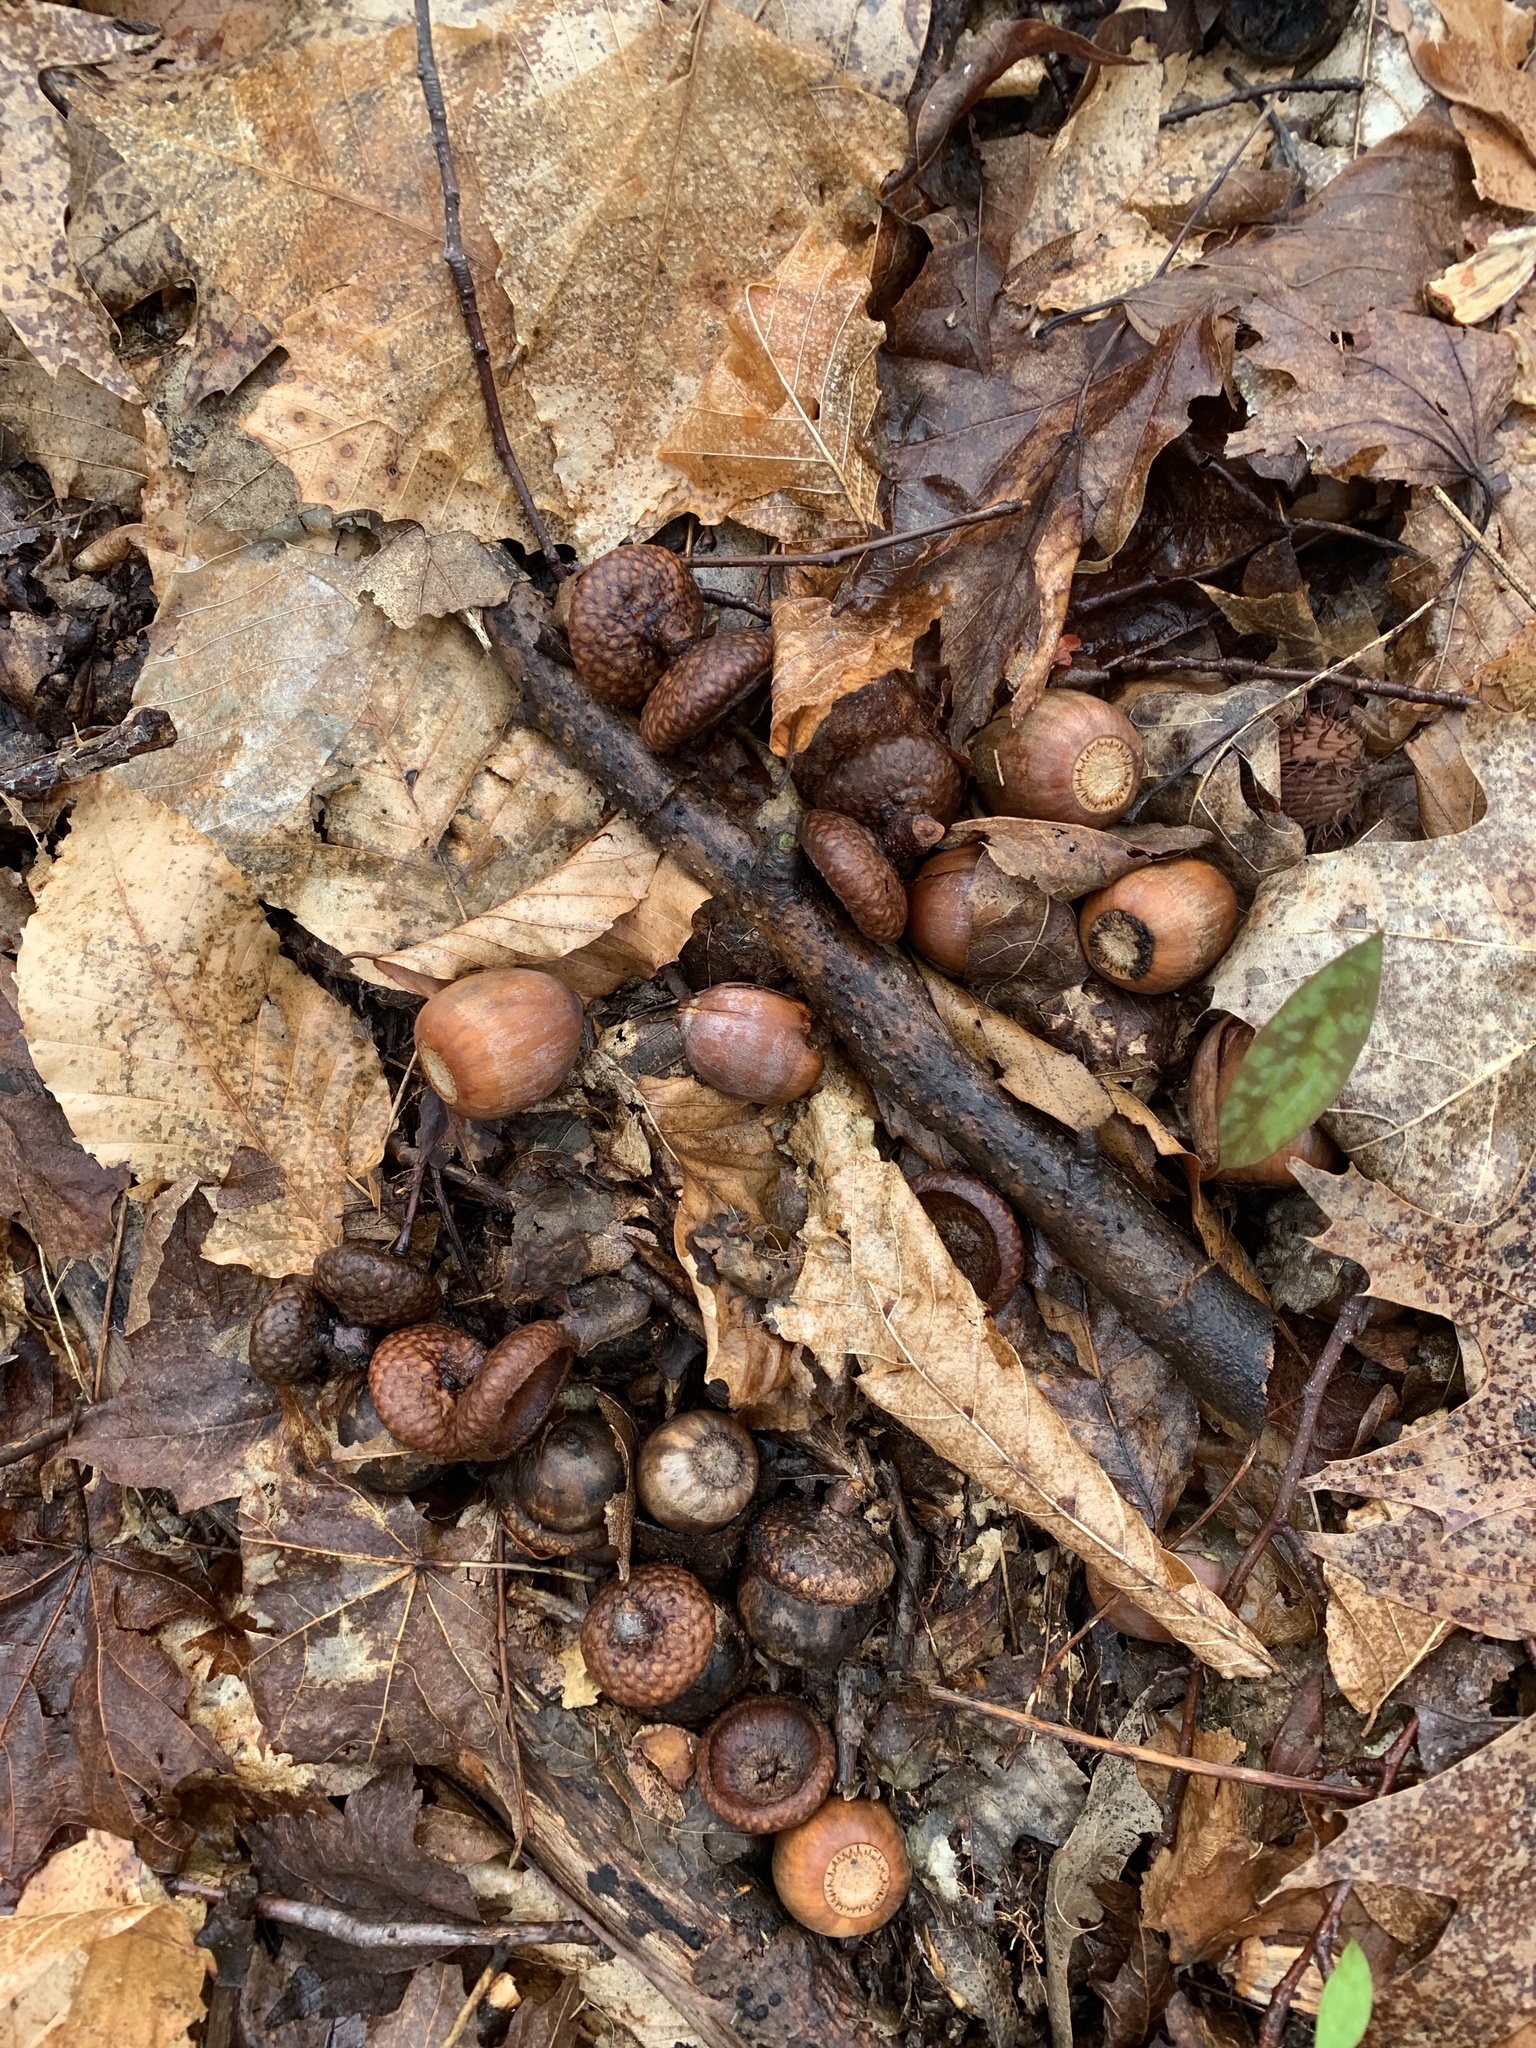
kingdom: Plantae
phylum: Tracheophyta
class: Magnoliopsida
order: Fagales
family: Fagaceae
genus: Quercus
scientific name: Quercus rubra
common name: Red oak
